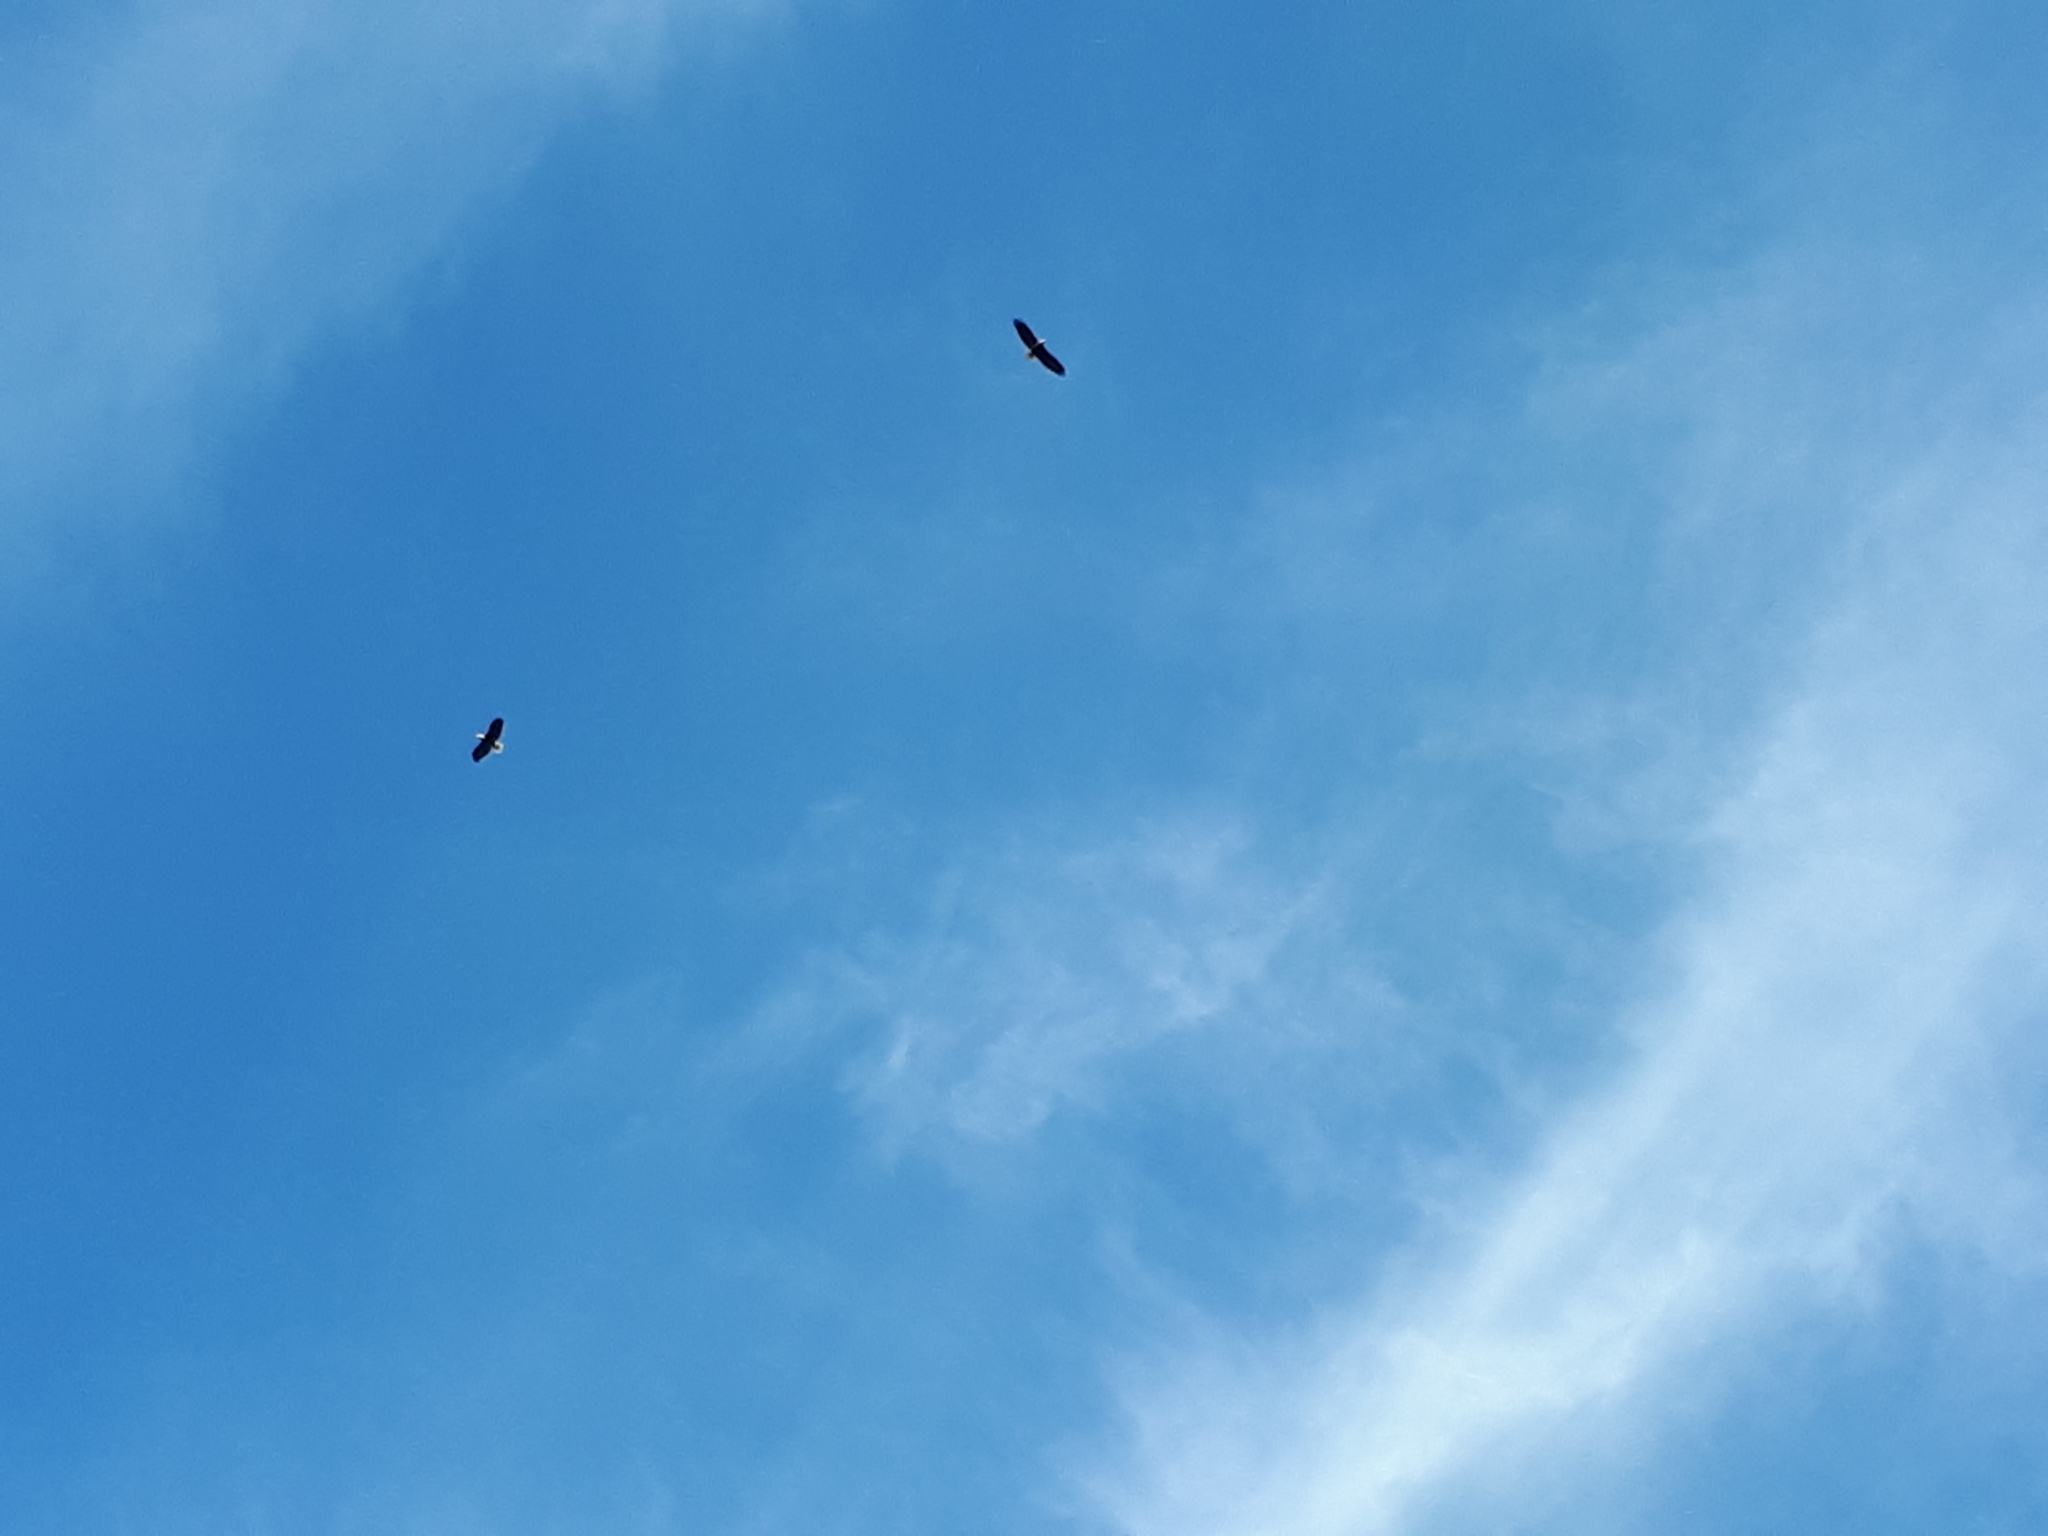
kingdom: Animalia
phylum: Chordata
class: Aves
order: Accipitriformes
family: Accipitridae
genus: Haliaeetus
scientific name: Haliaeetus leucocephalus
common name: Bald eagle
